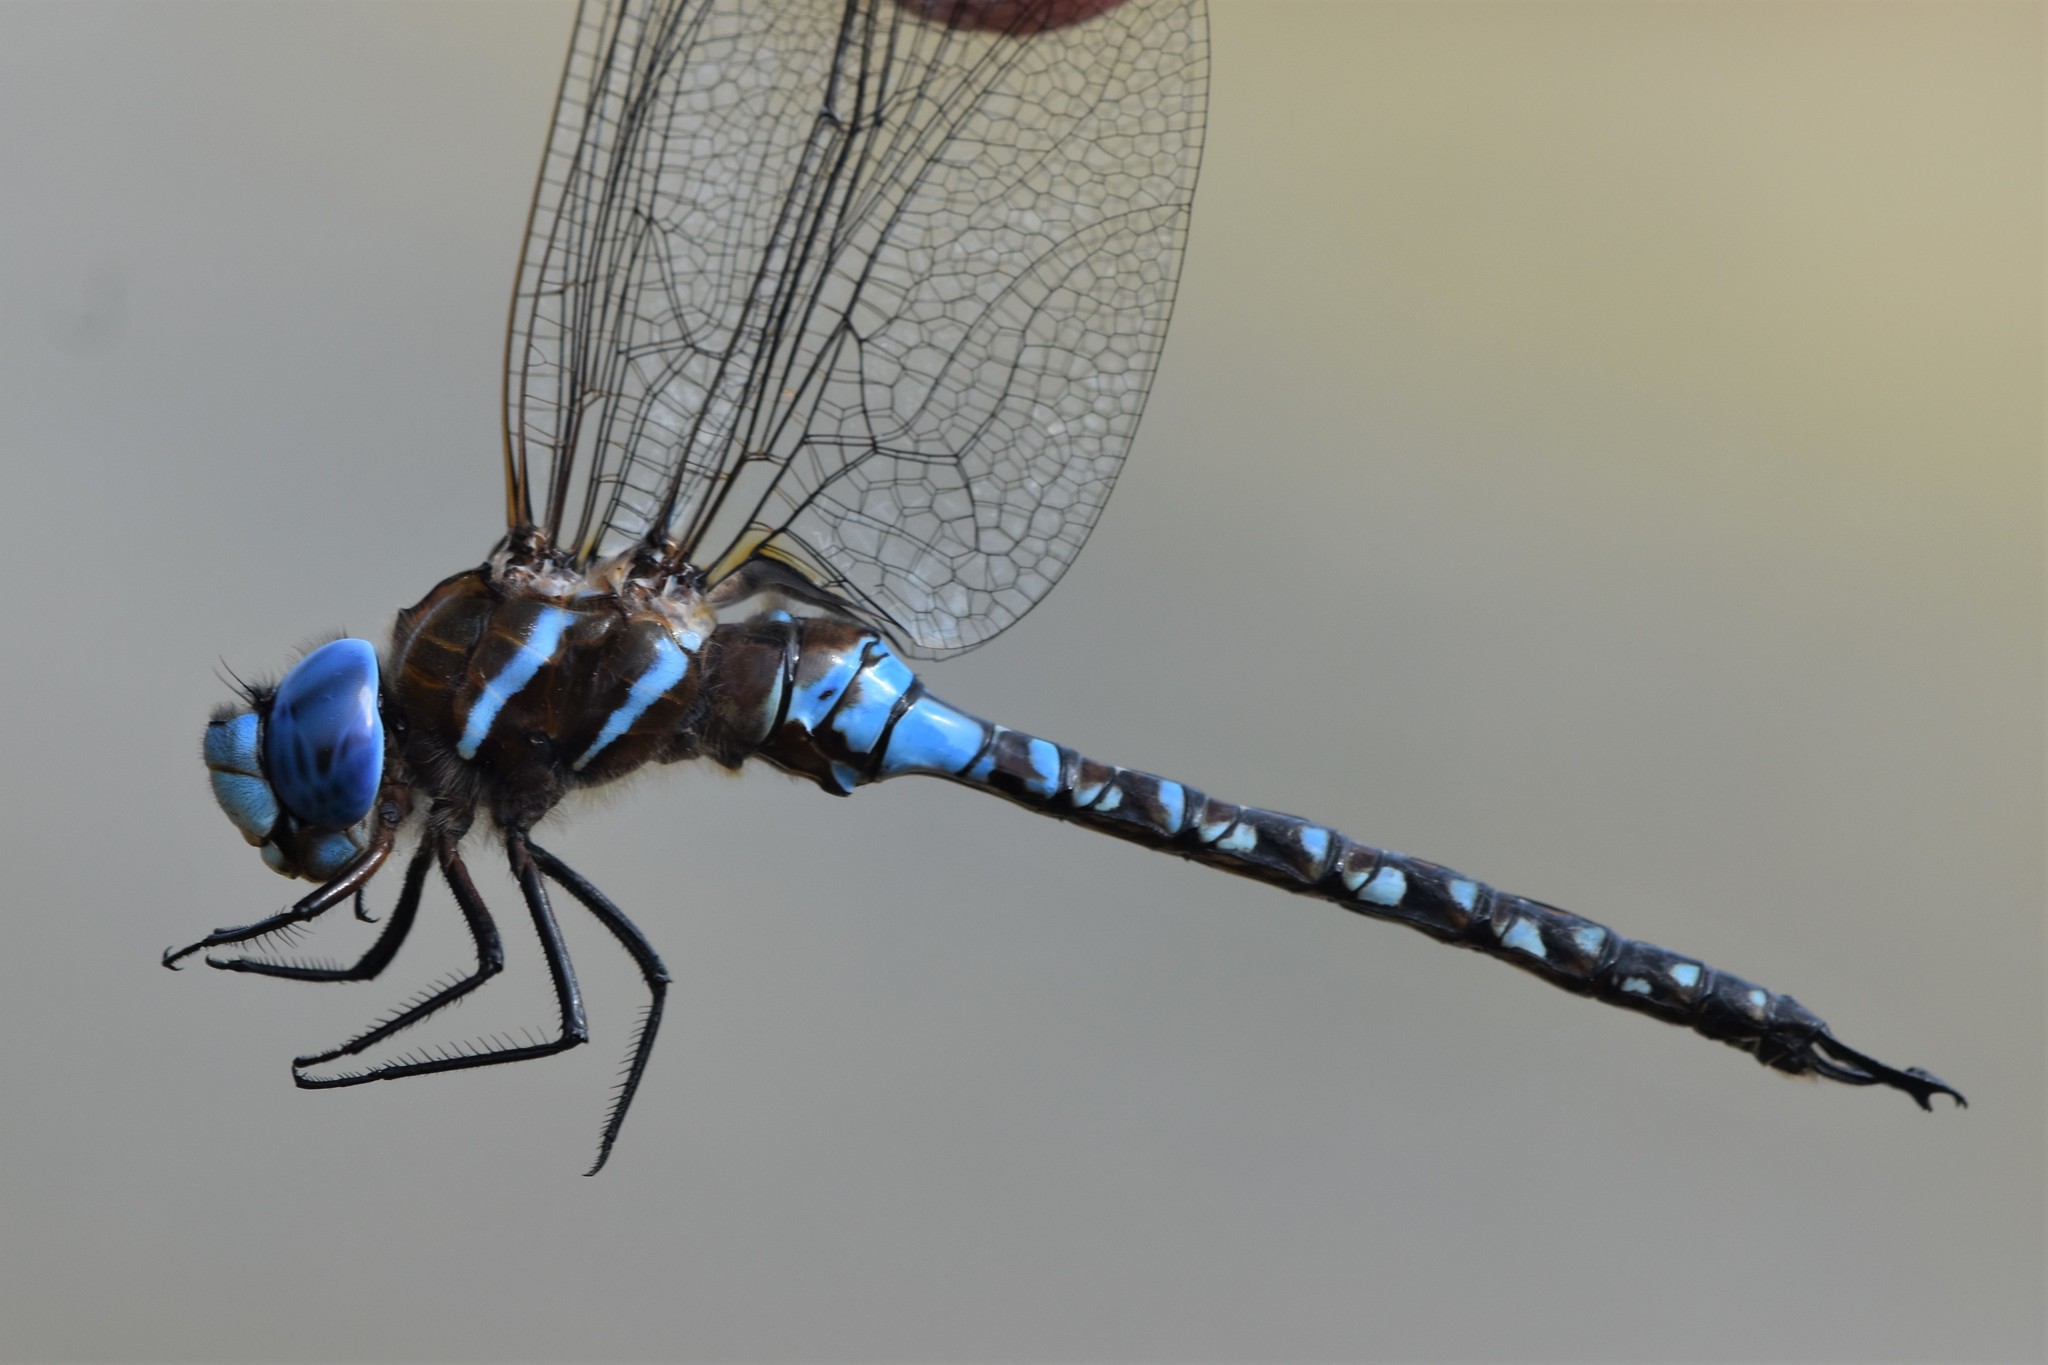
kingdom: Animalia
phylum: Arthropoda
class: Insecta
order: Odonata
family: Aeshnidae
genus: Rhionaeschna
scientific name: Rhionaeschna multicolor
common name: Blue-eyed darner
